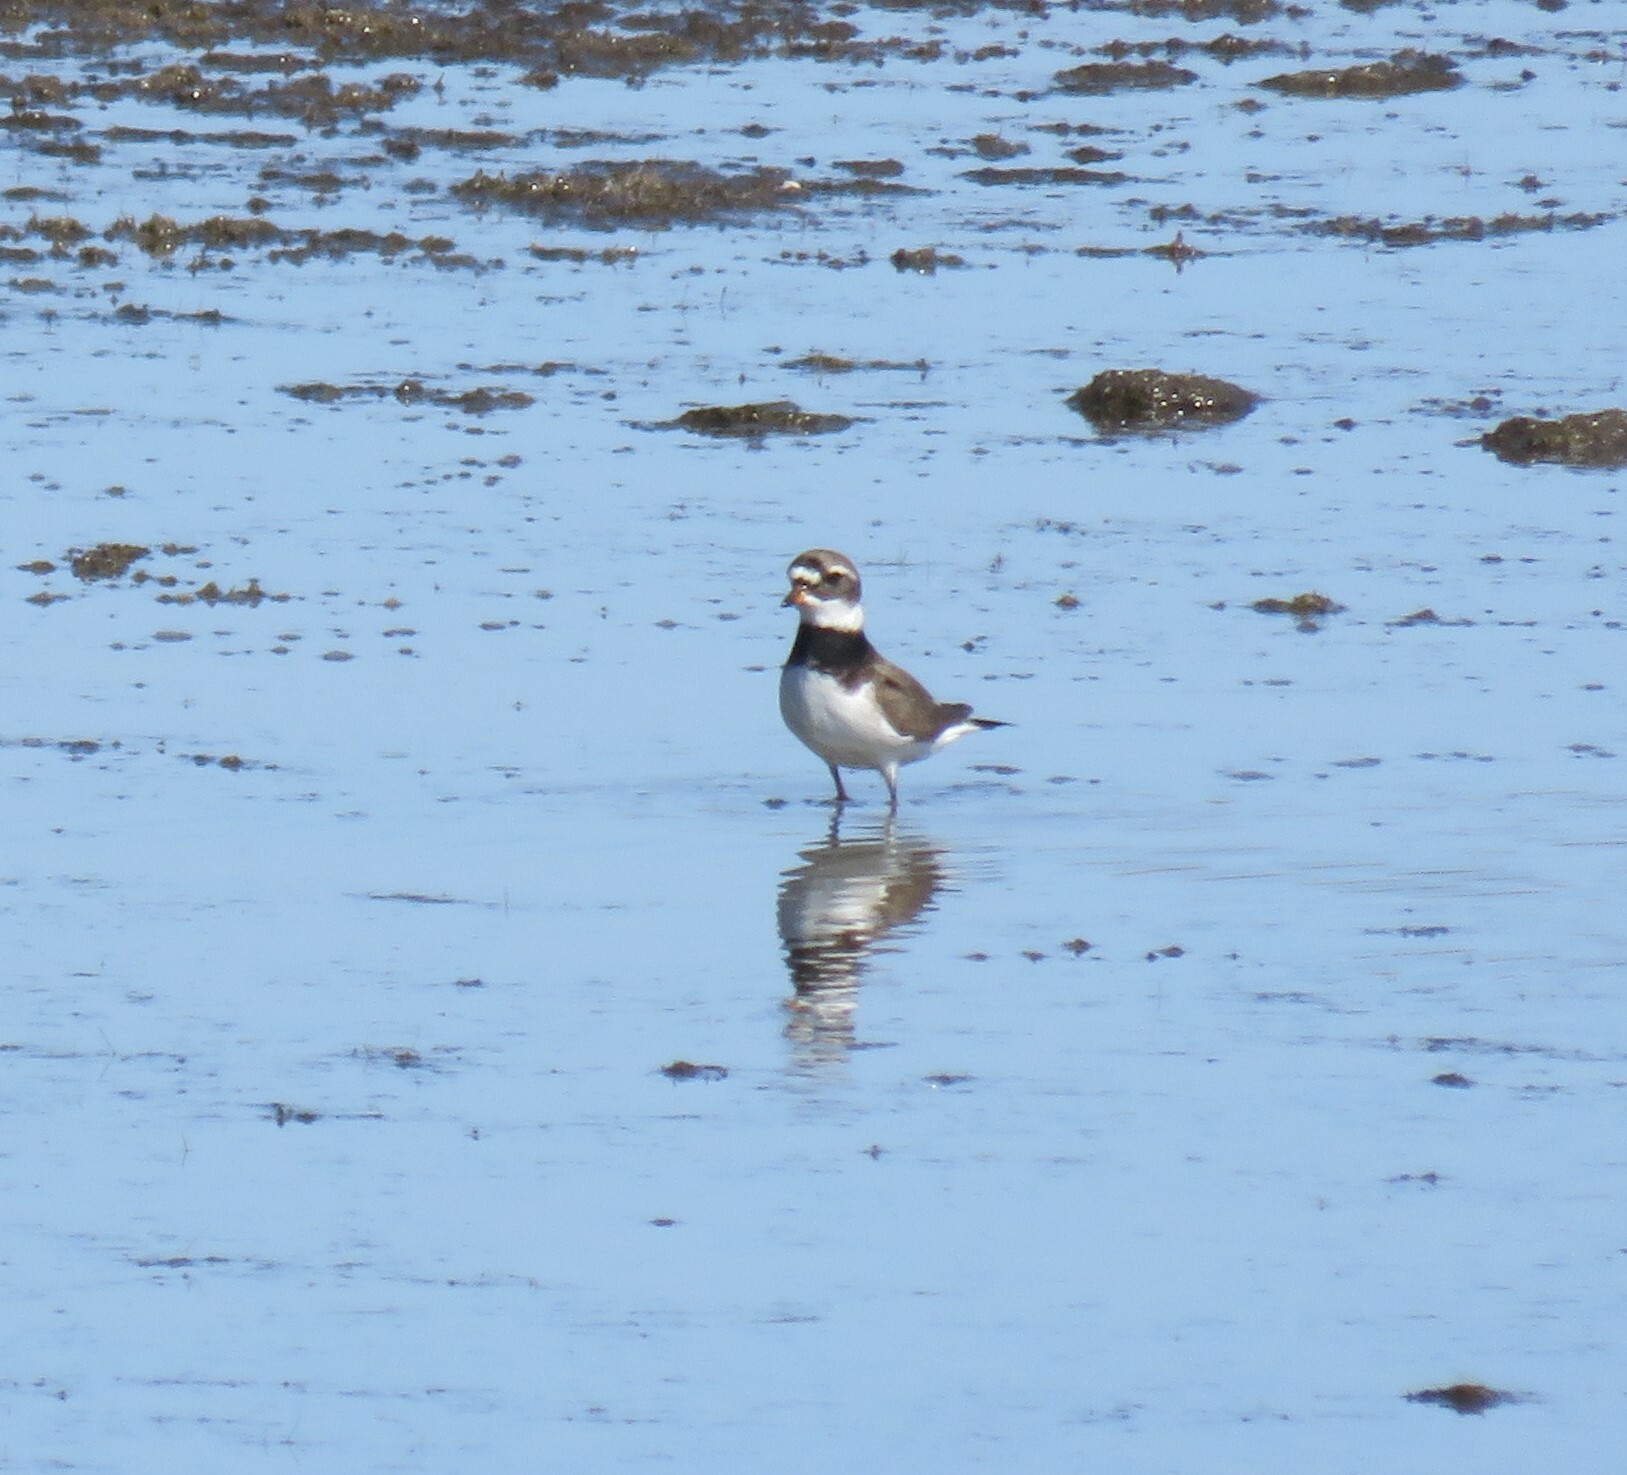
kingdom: Animalia
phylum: Chordata
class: Aves
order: Charadriiformes
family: Charadriidae
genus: Charadrius
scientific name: Charadrius hiaticula
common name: Common ringed plover
